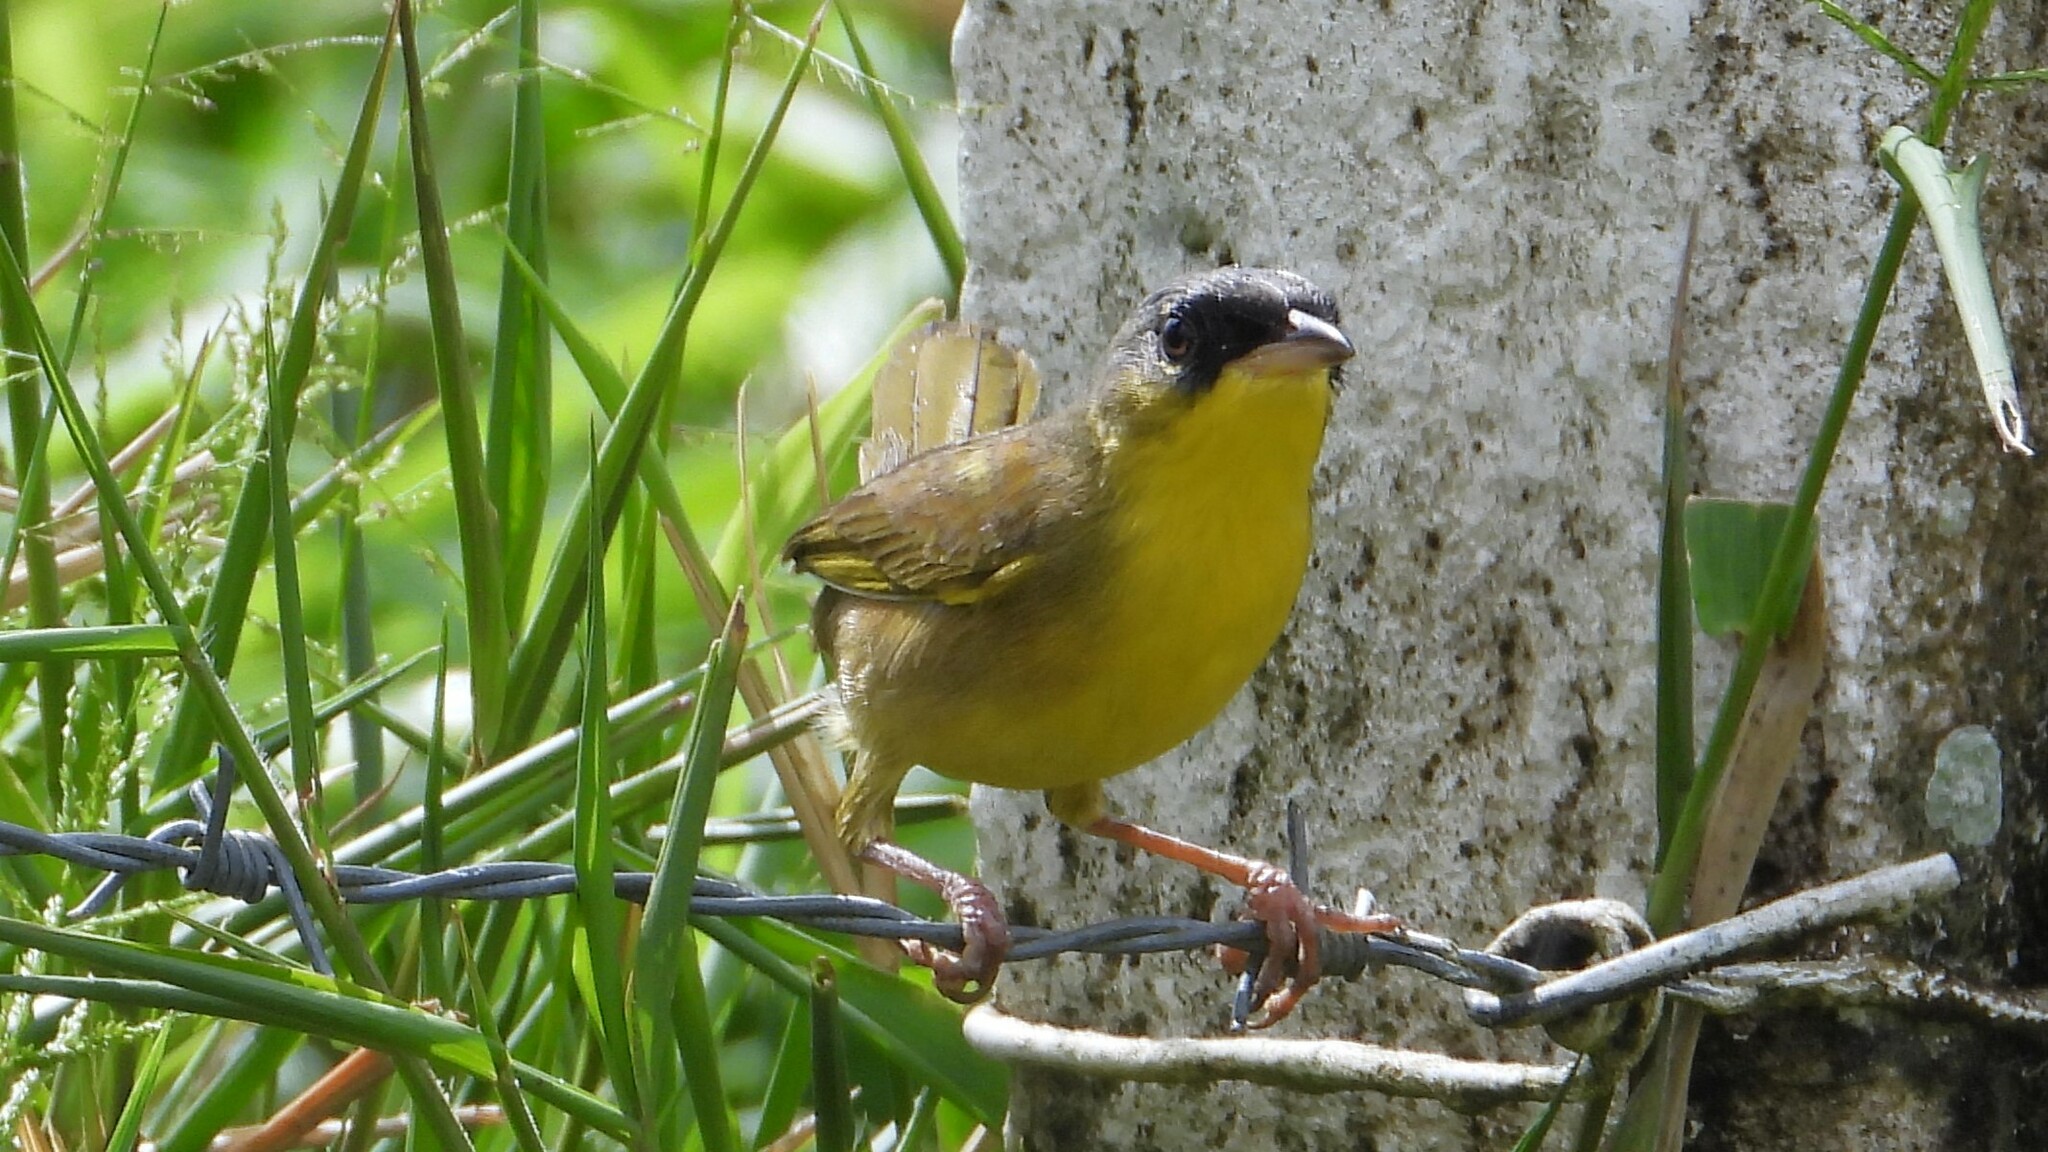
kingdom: Animalia
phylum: Chordata
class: Aves
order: Passeriformes
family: Parulidae
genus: Geothlypis
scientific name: Geothlypis poliocephala
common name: Gray-crowned yellowthroat
